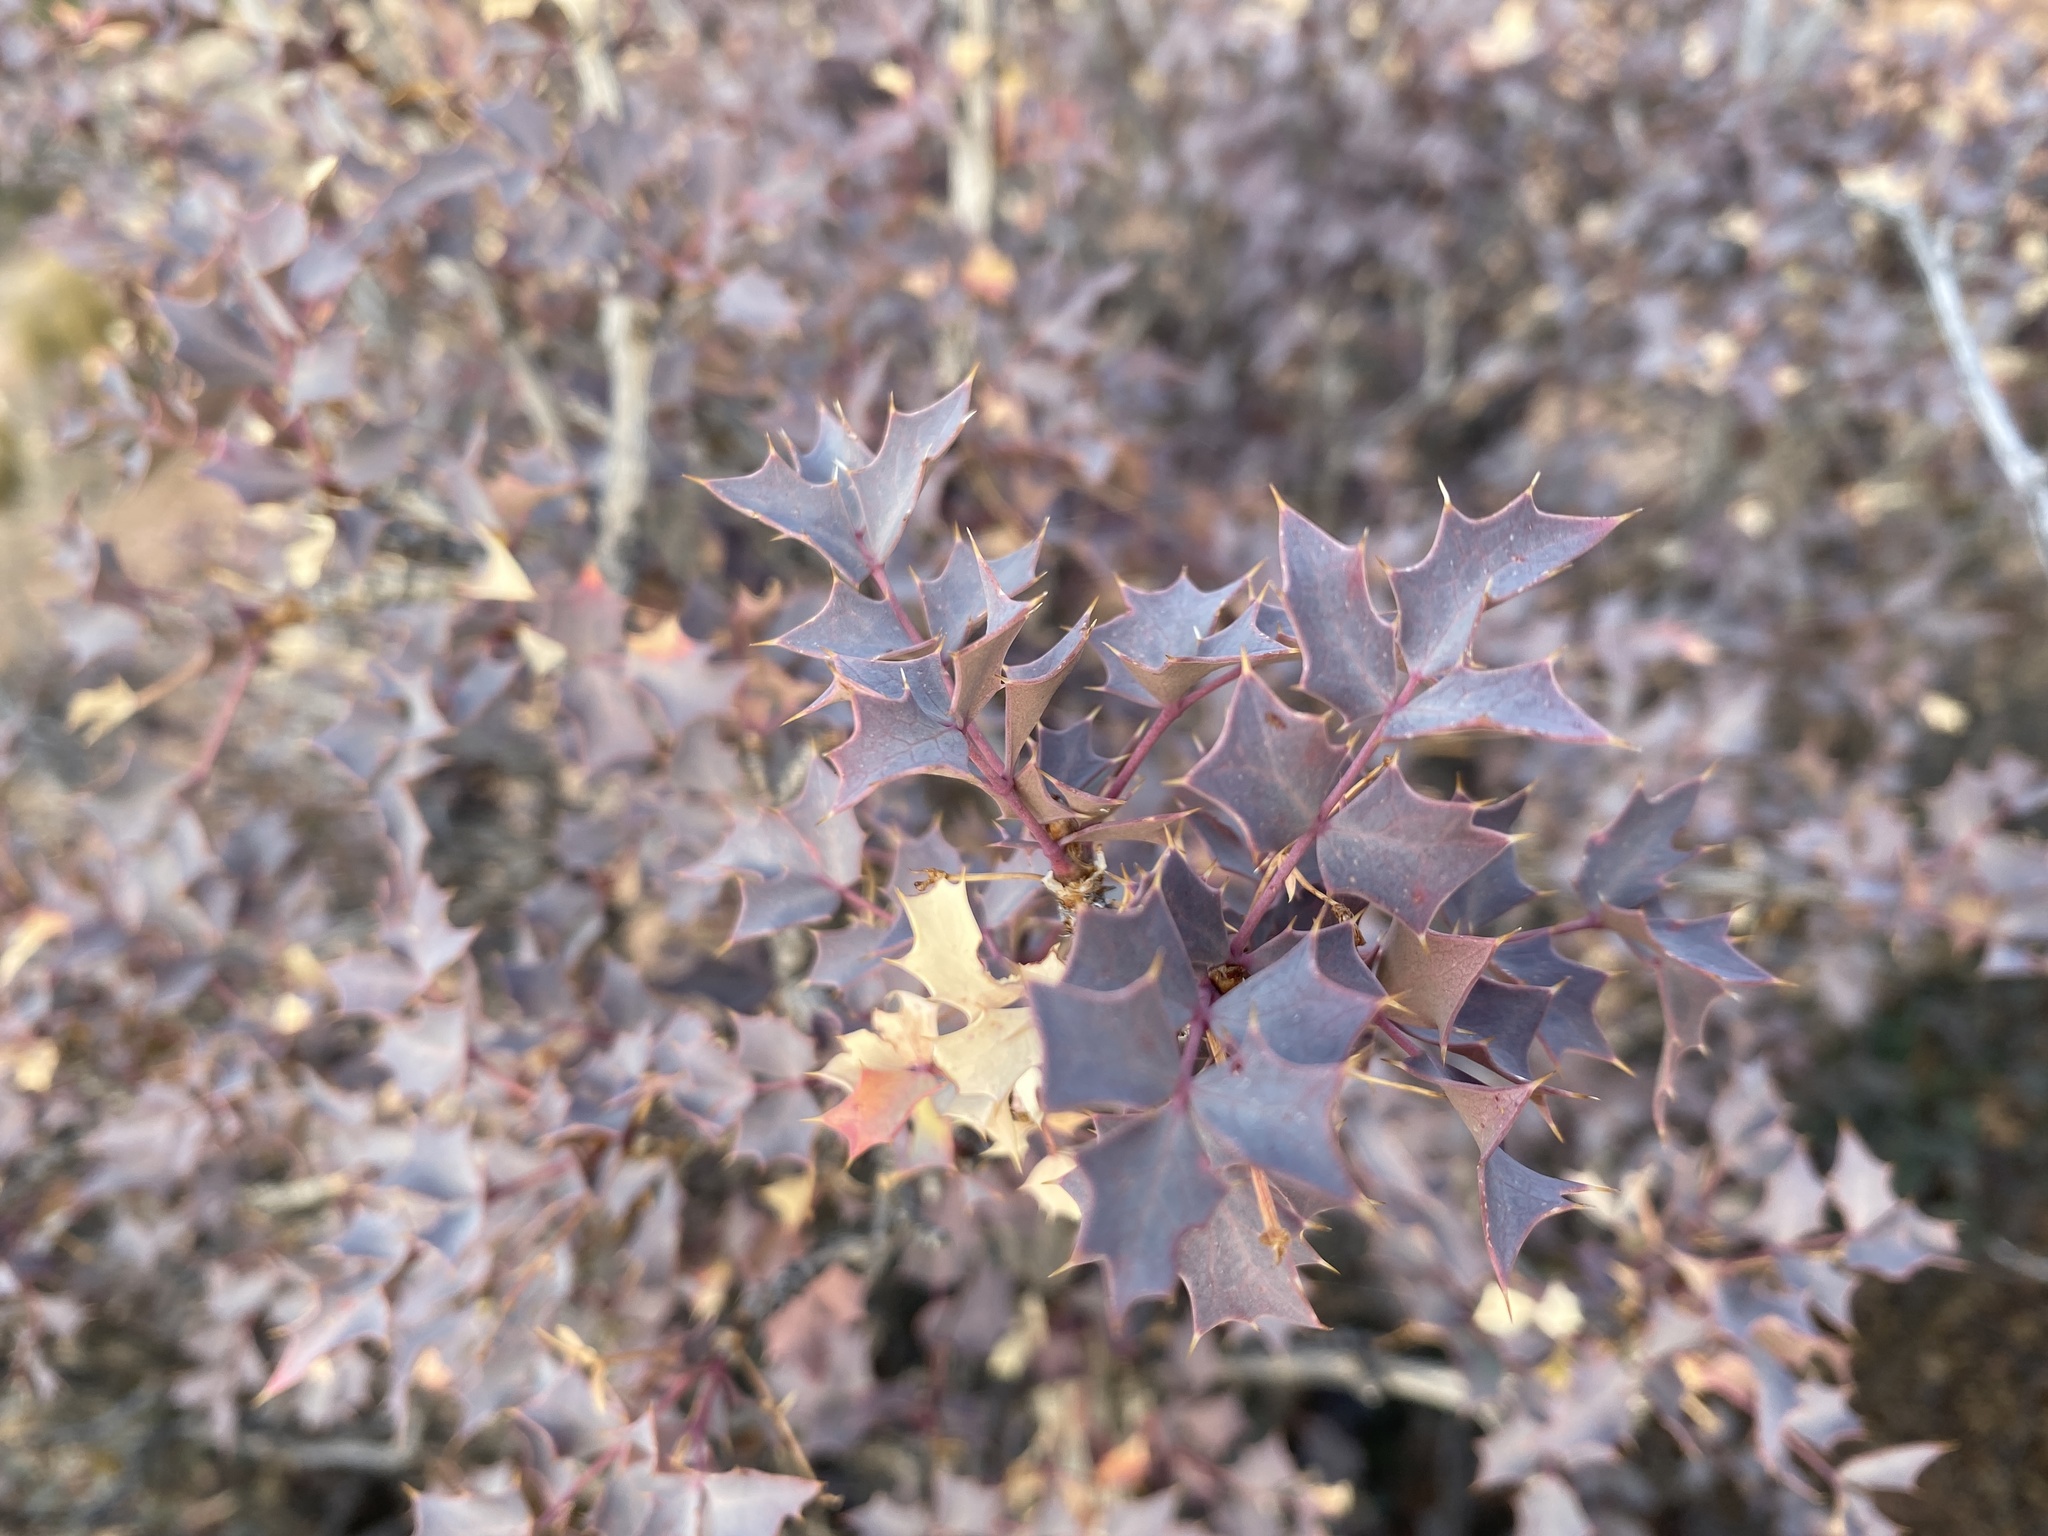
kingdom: Plantae
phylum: Tracheophyta
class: Magnoliopsida
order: Ranunculales
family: Berberidaceae
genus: Alloberberis
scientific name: Alloberberis fremontii
